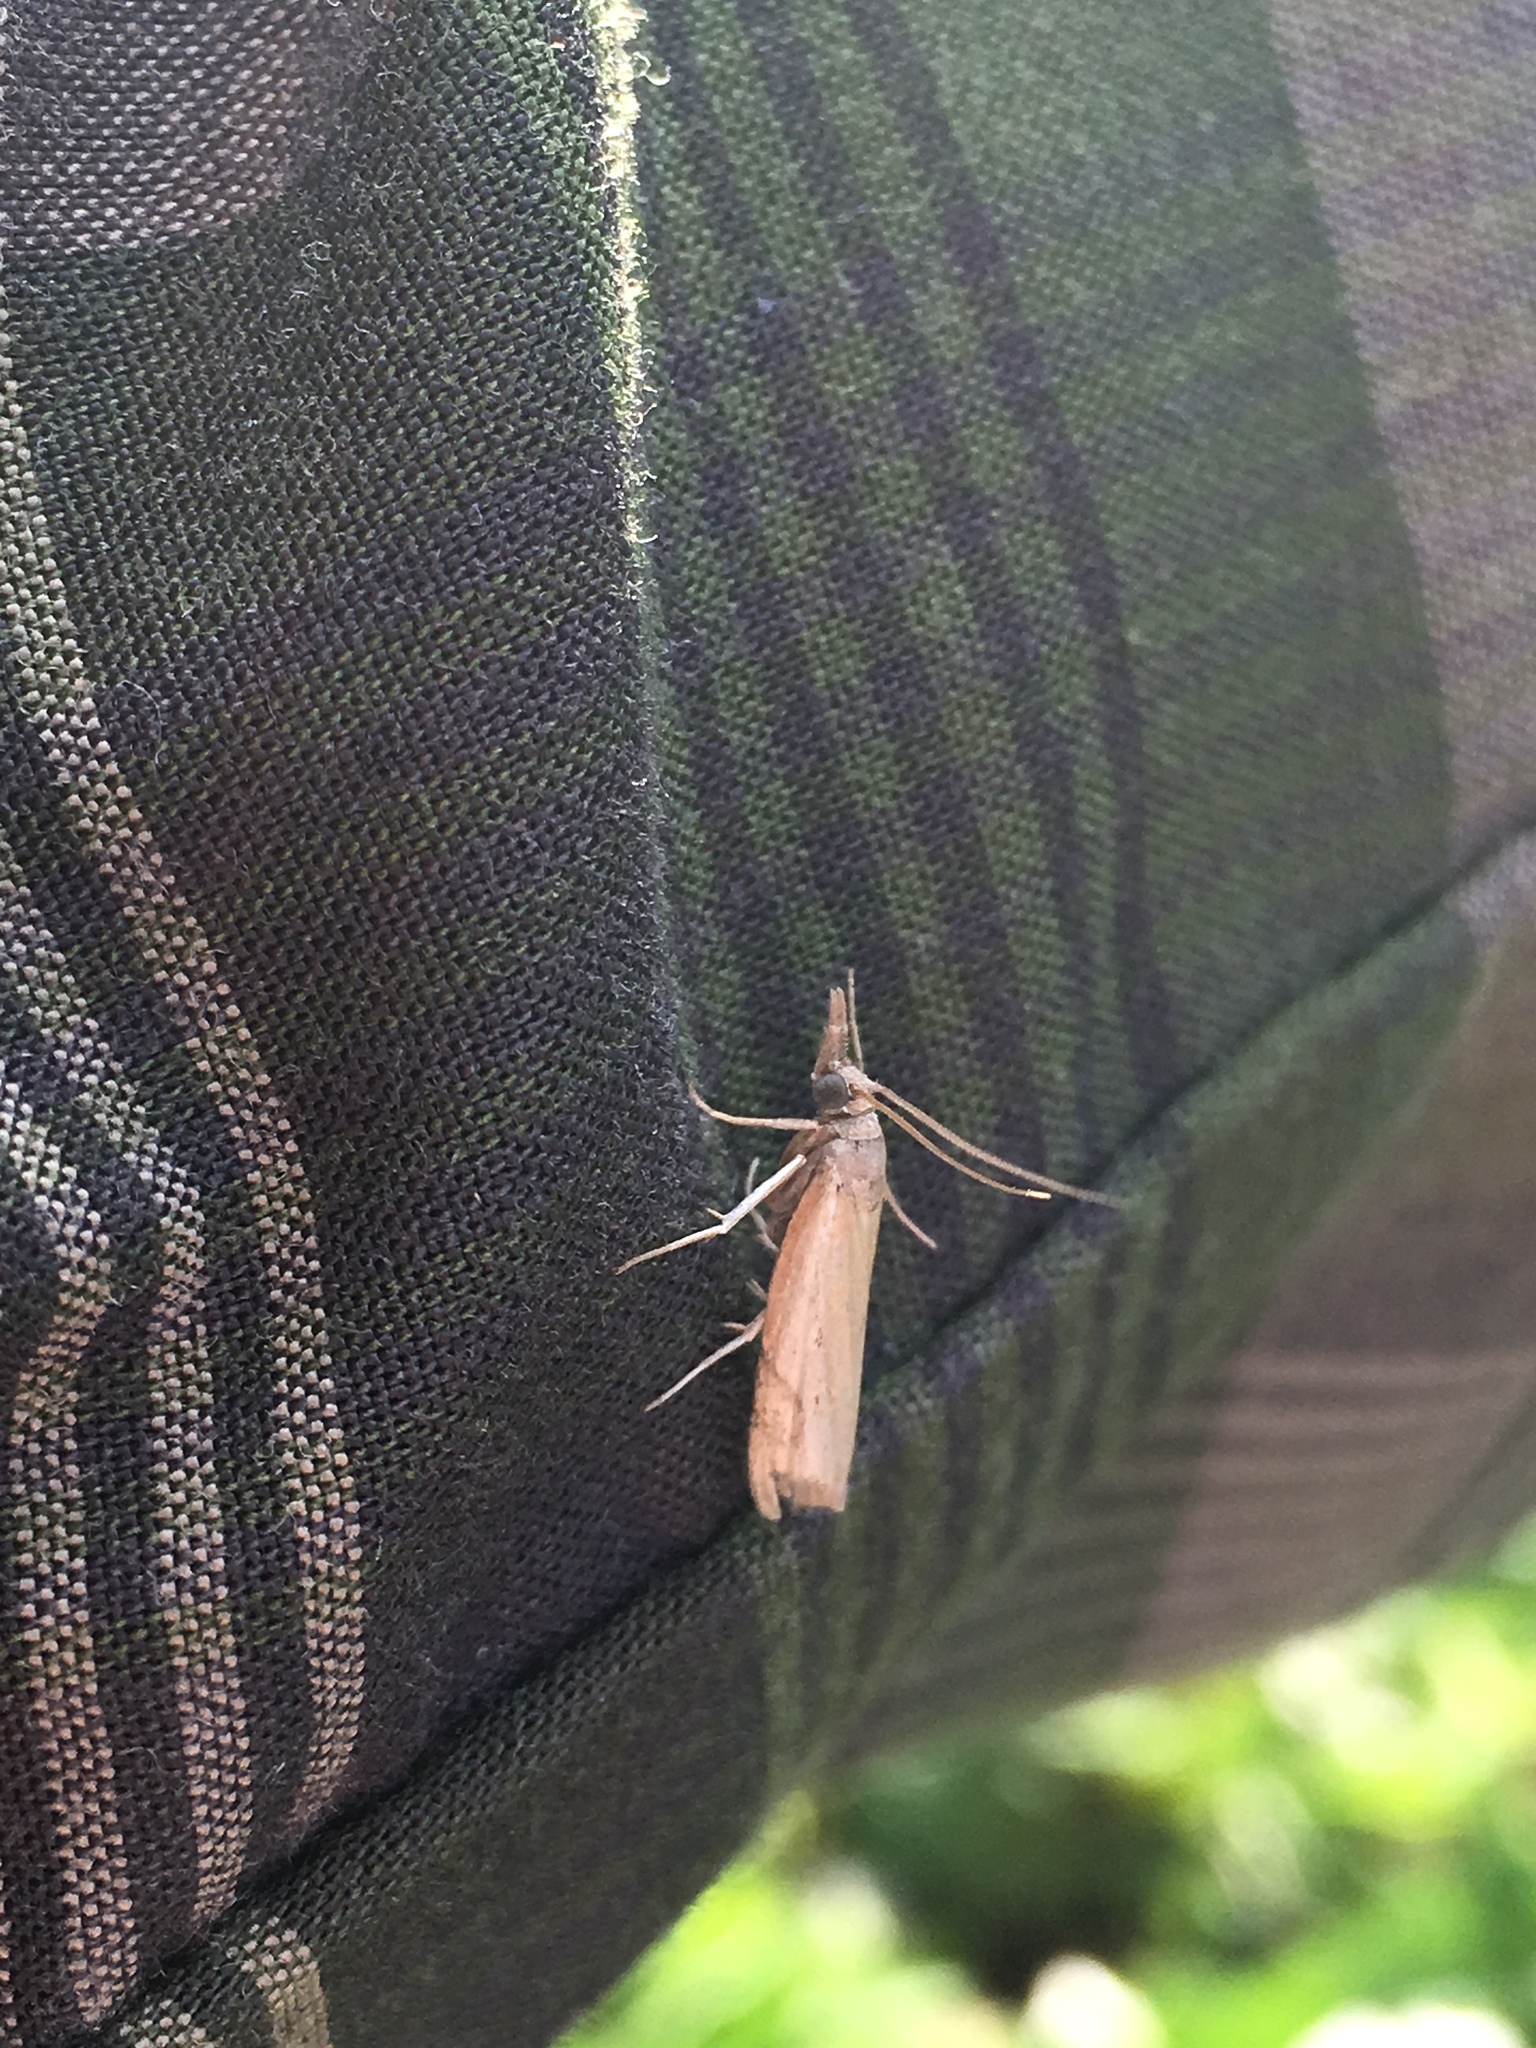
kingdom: Animalia
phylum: Arthropoda
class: Insecta
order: Lepidoptera
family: Crambidae
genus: Parapediasia
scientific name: Parapediasia teterellus
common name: Bluegrass webworm moth
